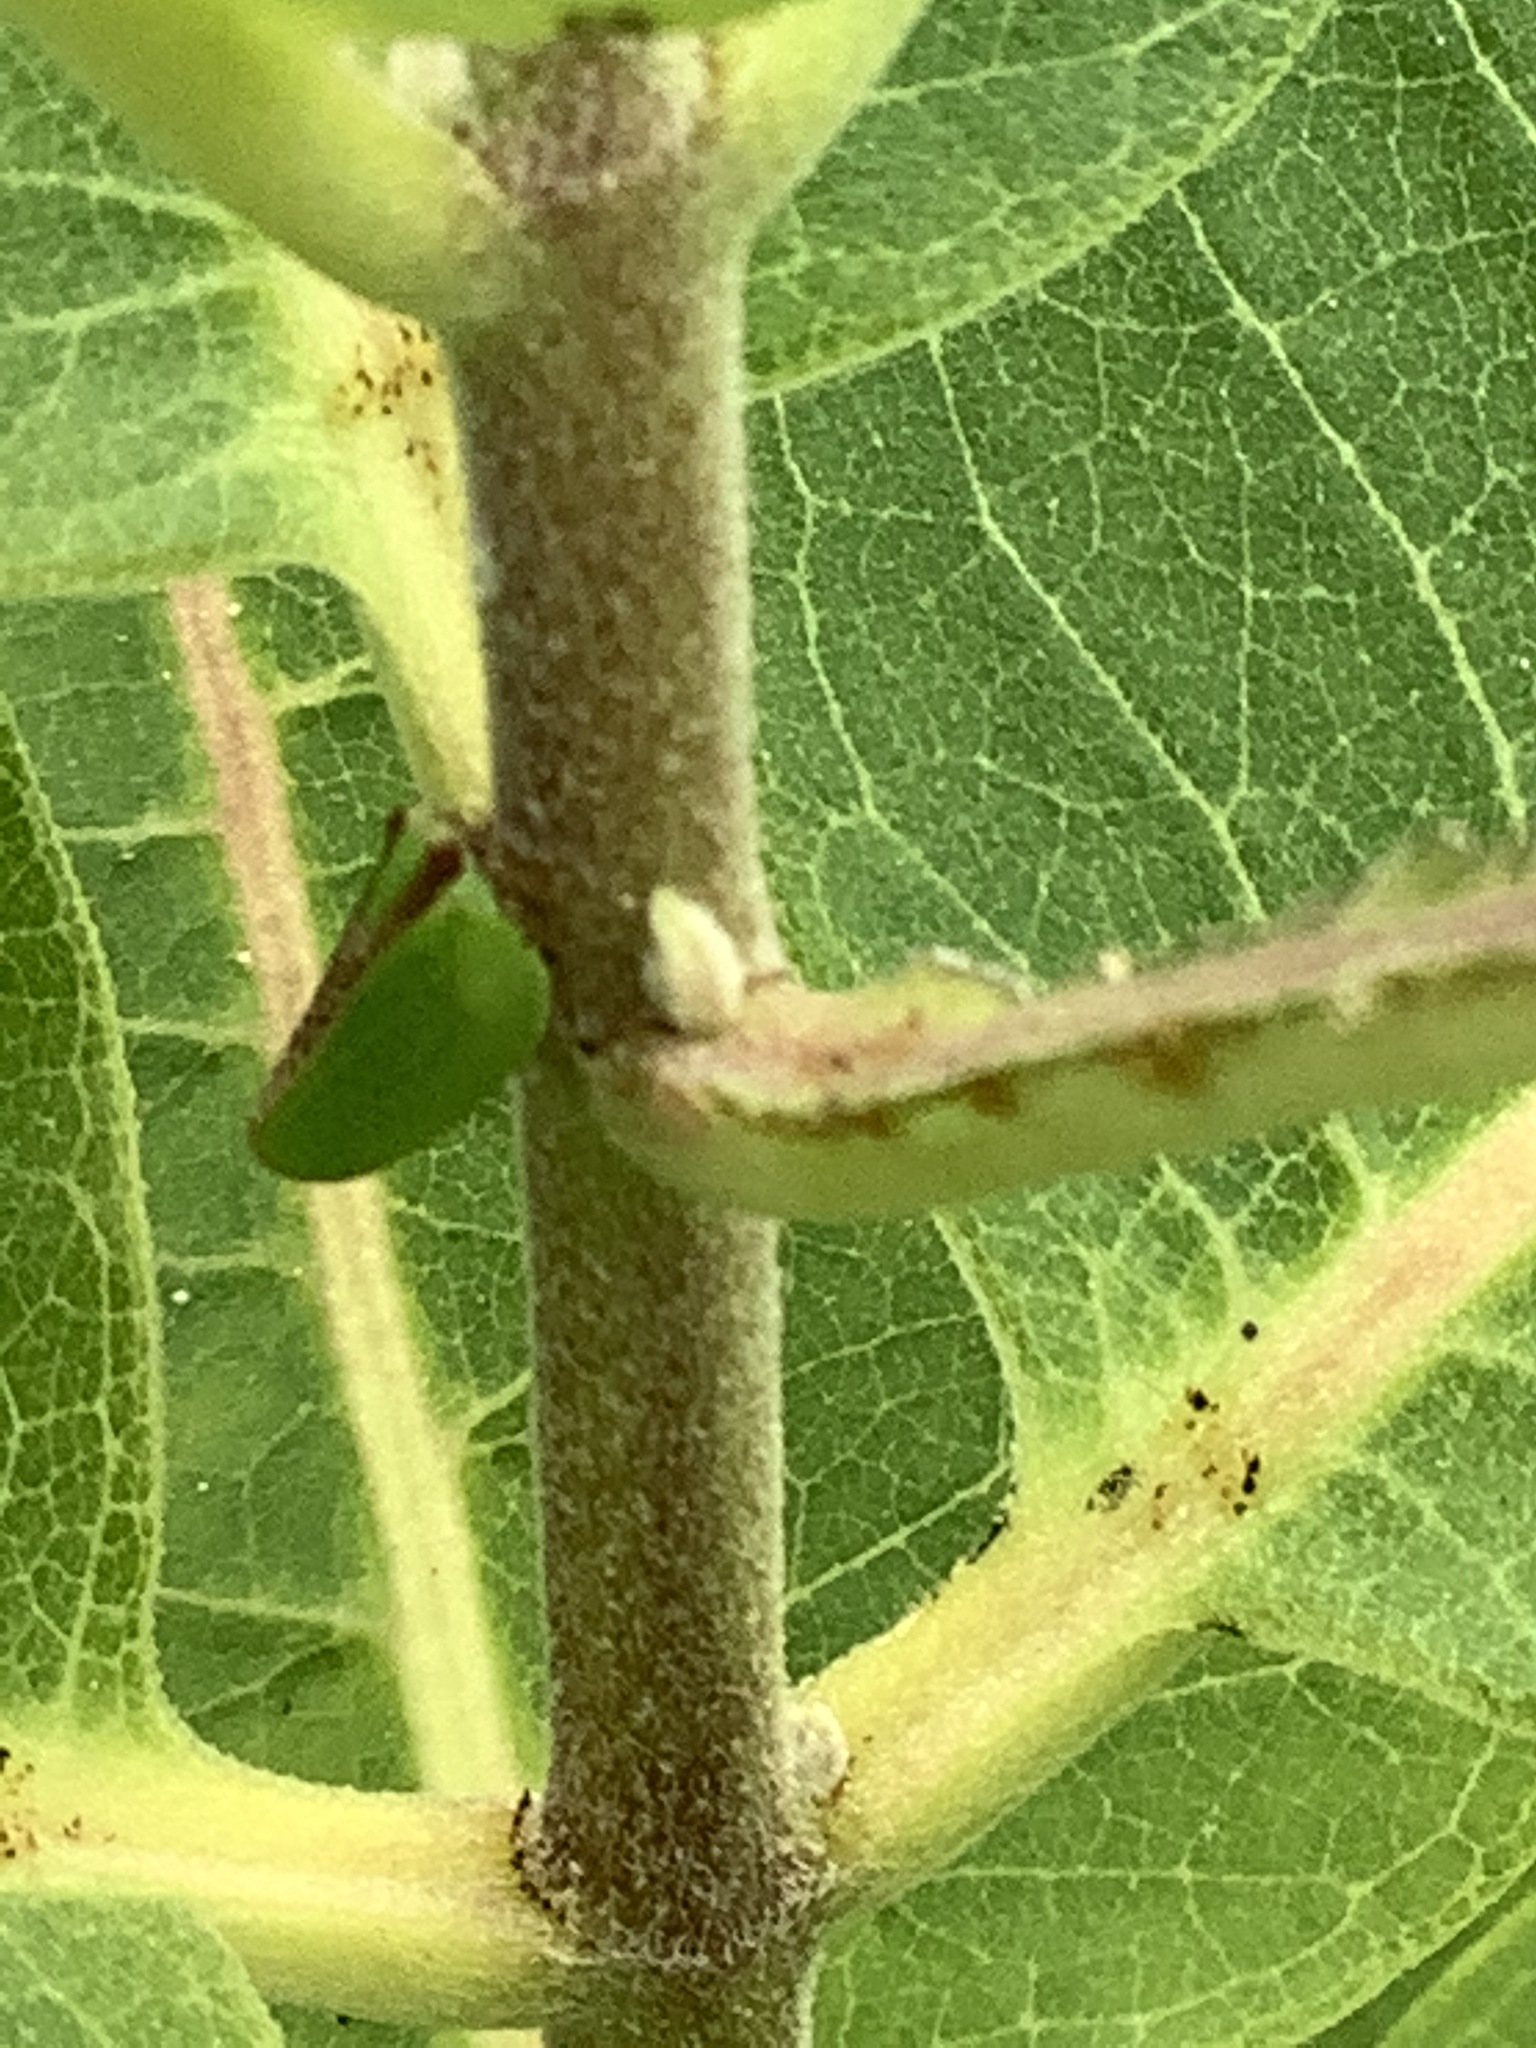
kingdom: Animalia
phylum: Arthropoda
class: Insecta
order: Hemiptera
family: Acanaloniidae
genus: Acanalonia
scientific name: Acanalonia bivittata
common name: Two-striped planthopper
